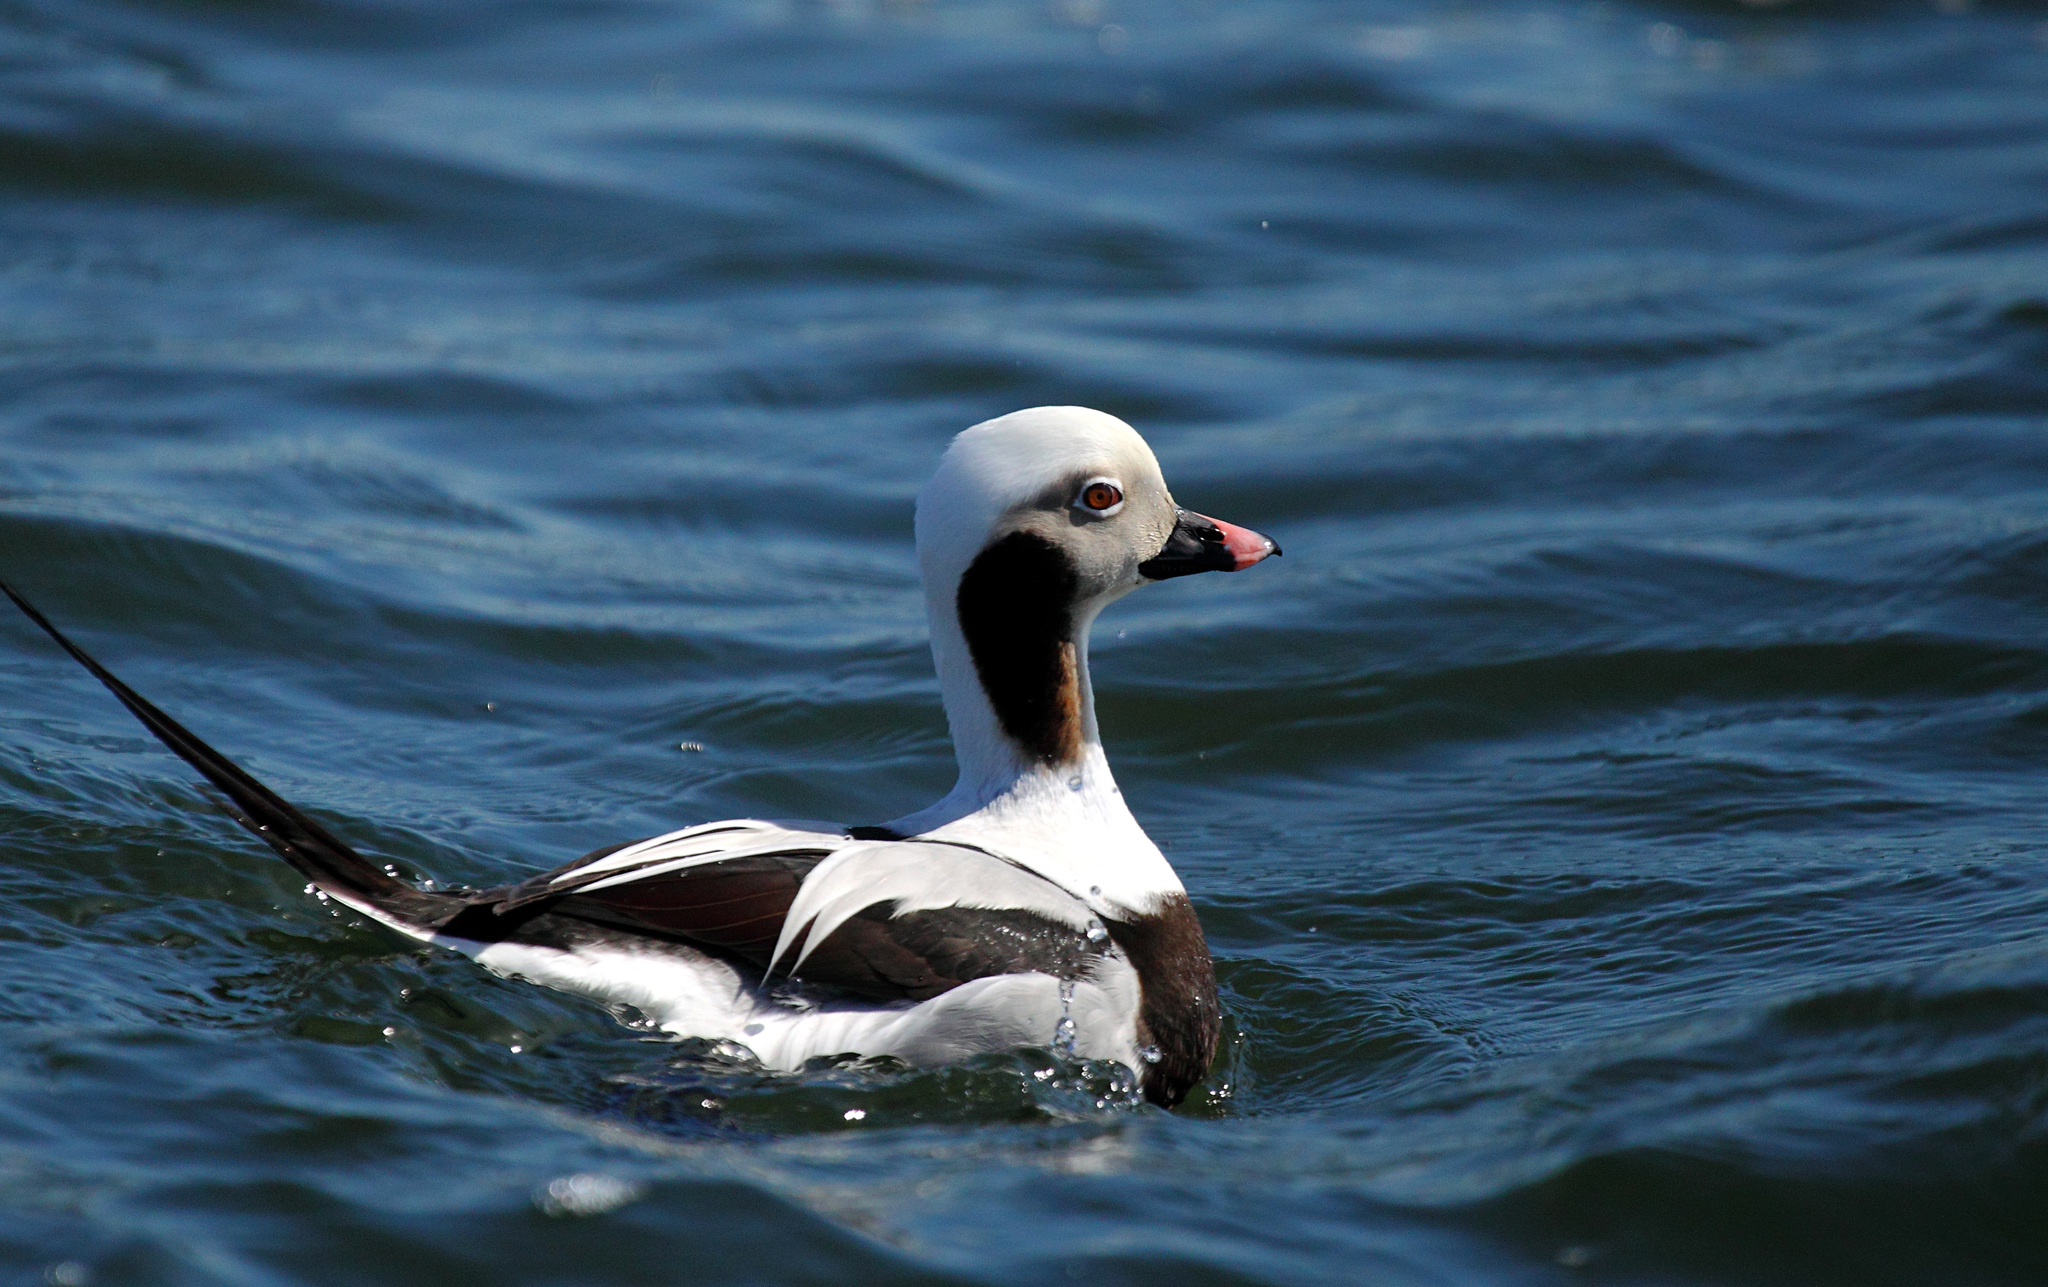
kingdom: Animalia
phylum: Chordata
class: Aves
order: Anseriformes
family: Anatidae
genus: Clangula
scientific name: Clangula hyemalis
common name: Long-tailed duck
